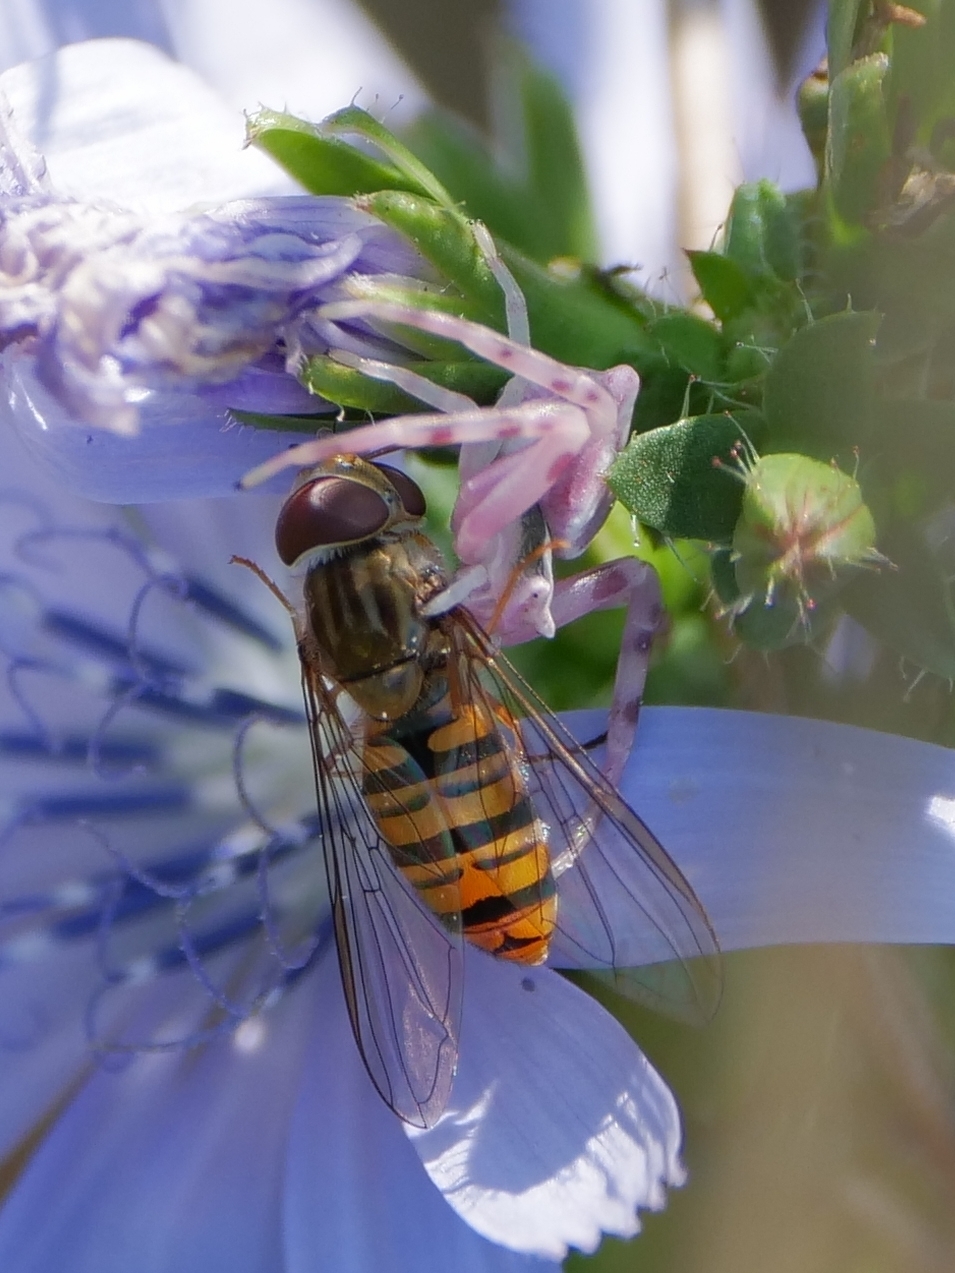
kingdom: Animalia
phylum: Arthropoda
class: Arachnida
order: Araneae
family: Thomisidae
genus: Thomisus
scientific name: Thomisus onustus
